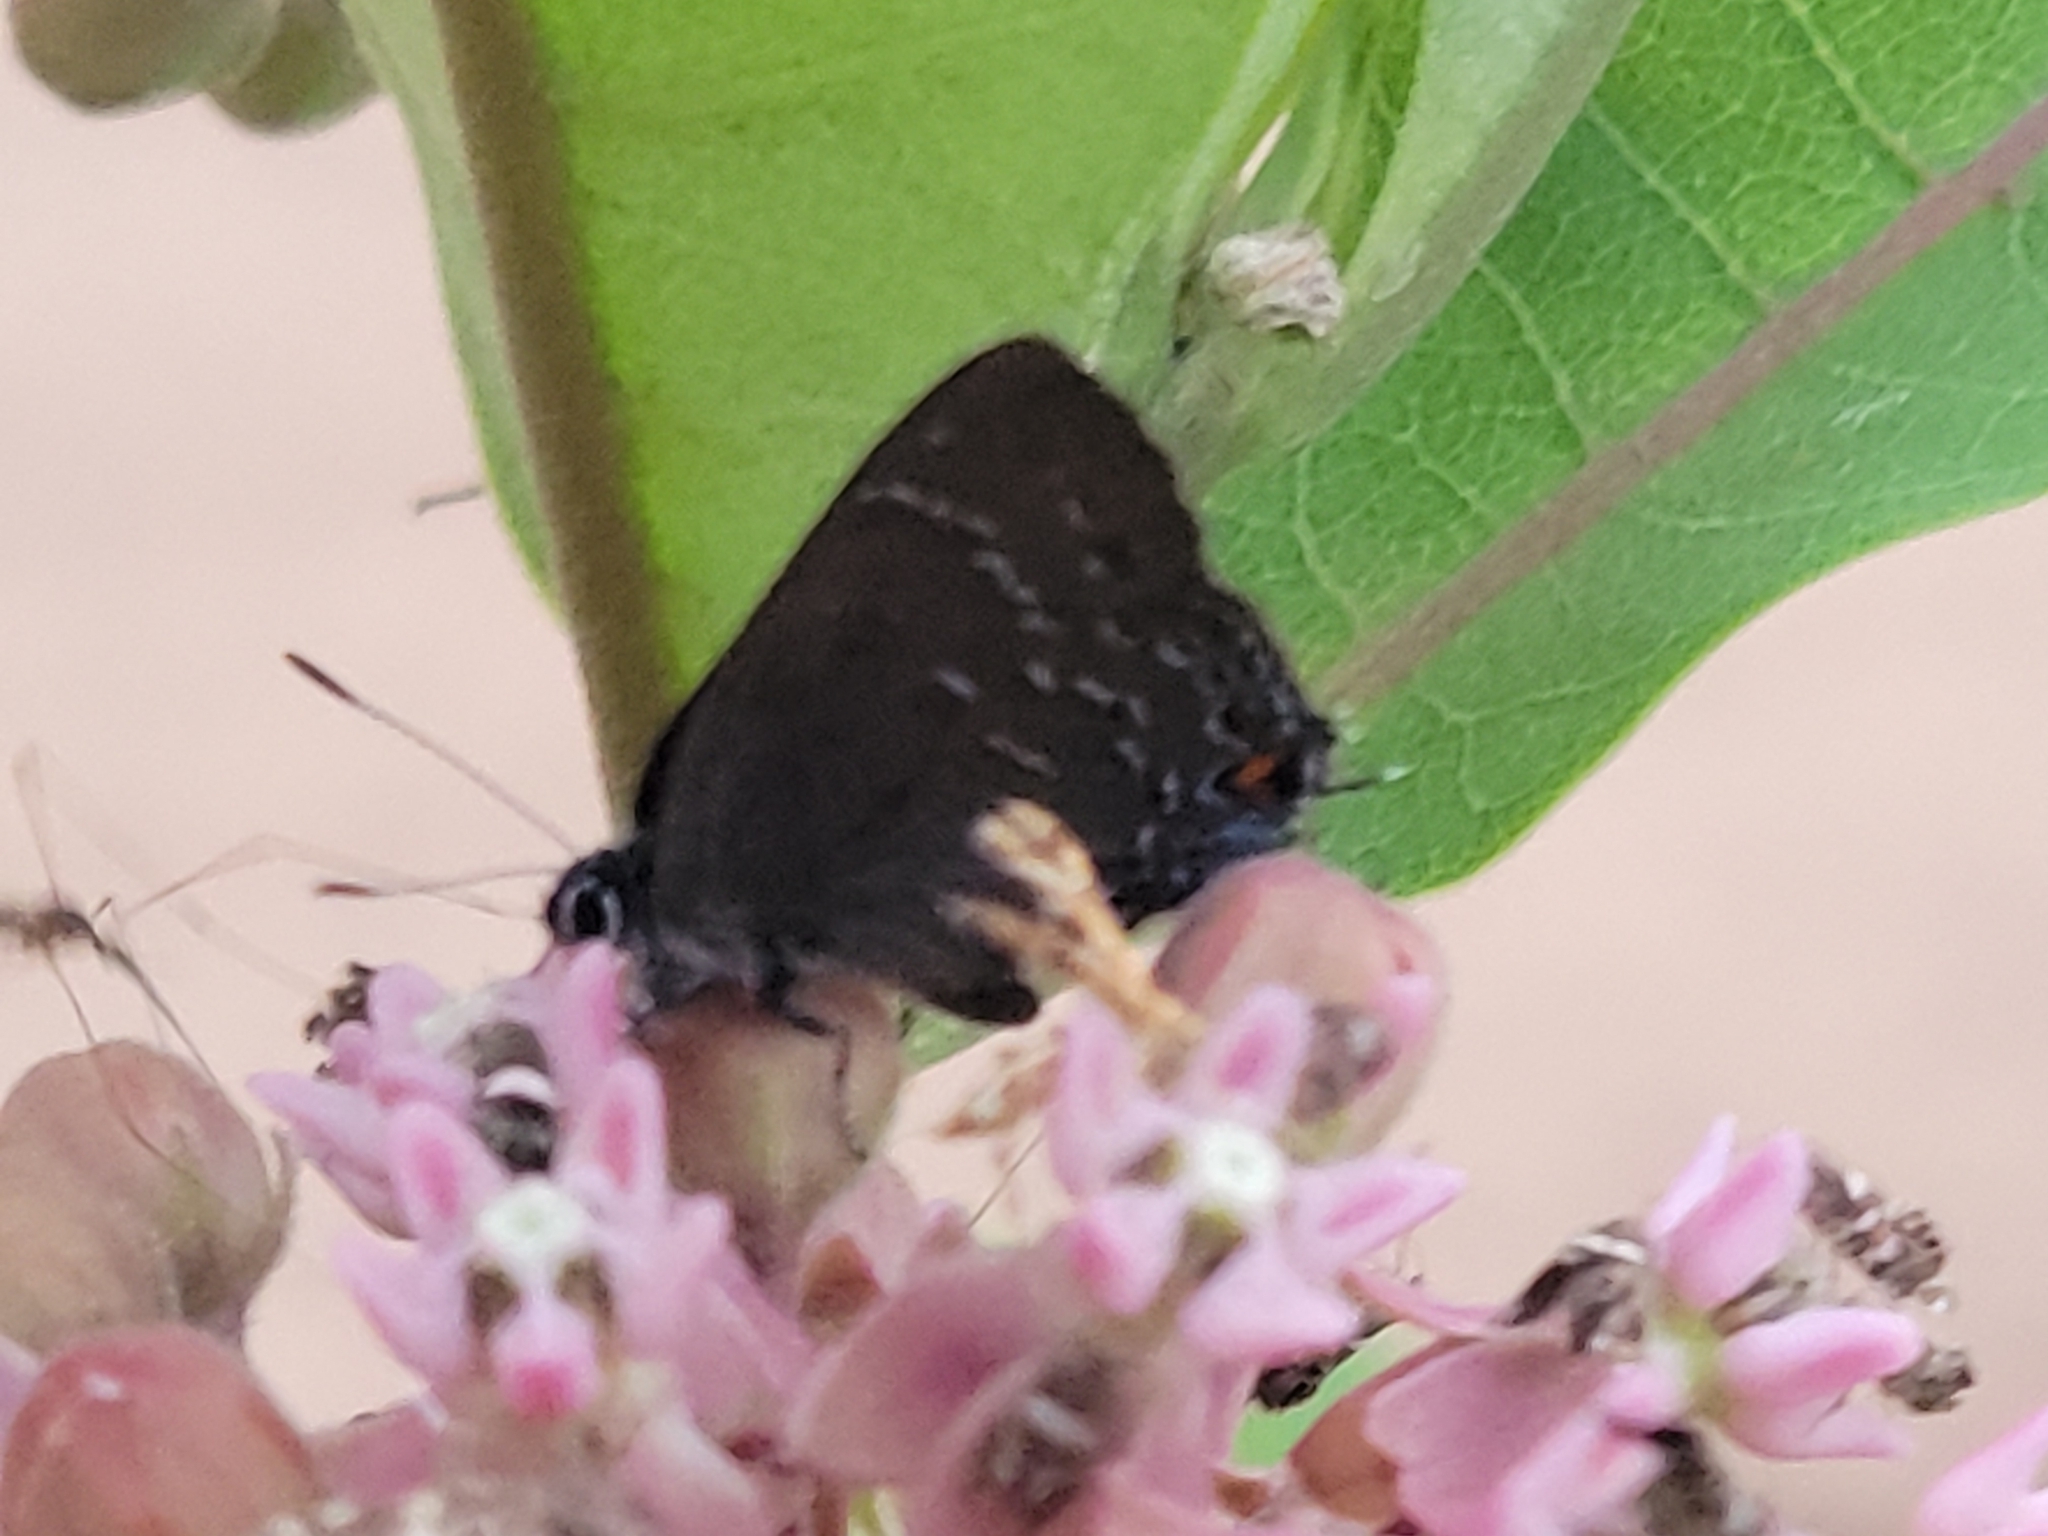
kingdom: Animalia
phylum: Arthropoda
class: Insecta
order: Lepidoptera
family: Lycaenidae
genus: Satyrium
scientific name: Satyrium calanus
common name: Banded hairstreak
